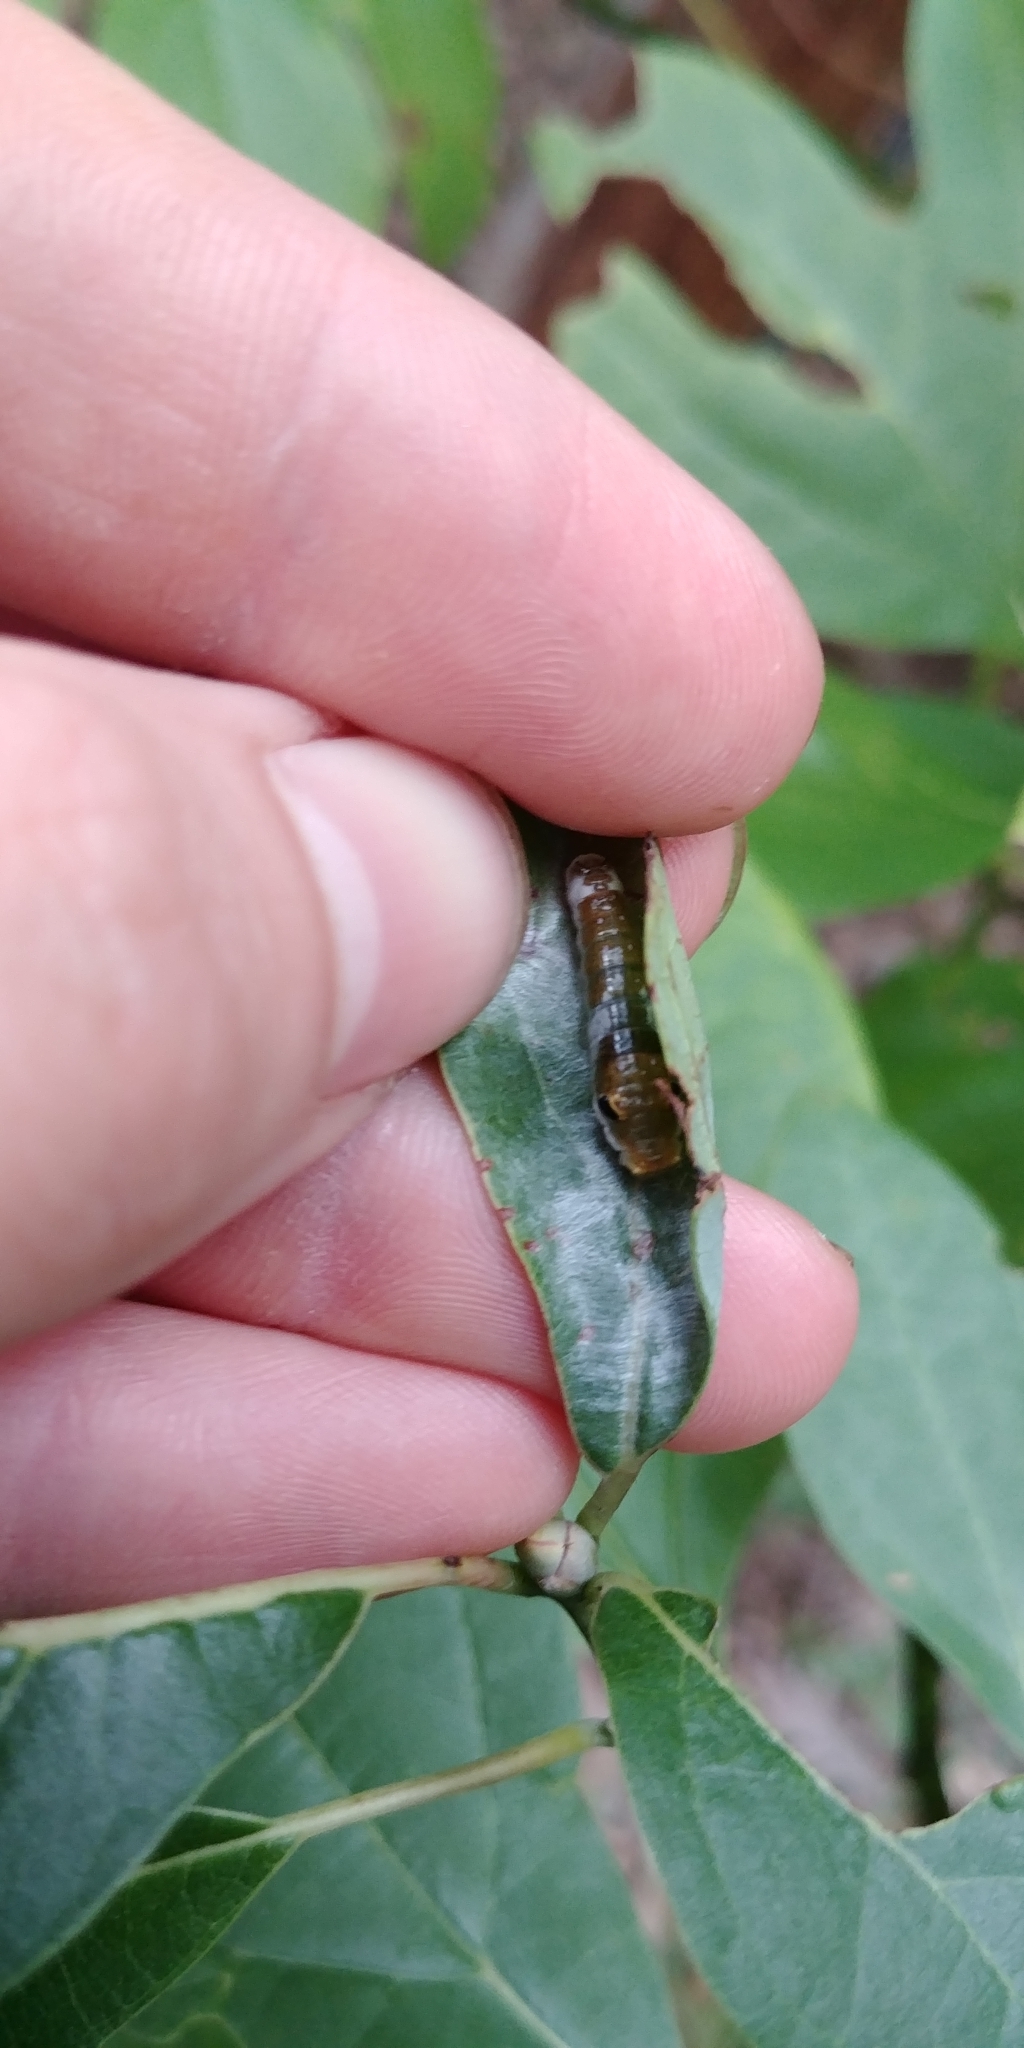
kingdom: Animalia
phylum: Arthropoda
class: Insecta
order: Lepidoptera
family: Papilionidae
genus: Papilio
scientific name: Papilio troilus
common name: Spicebush swallowtail
